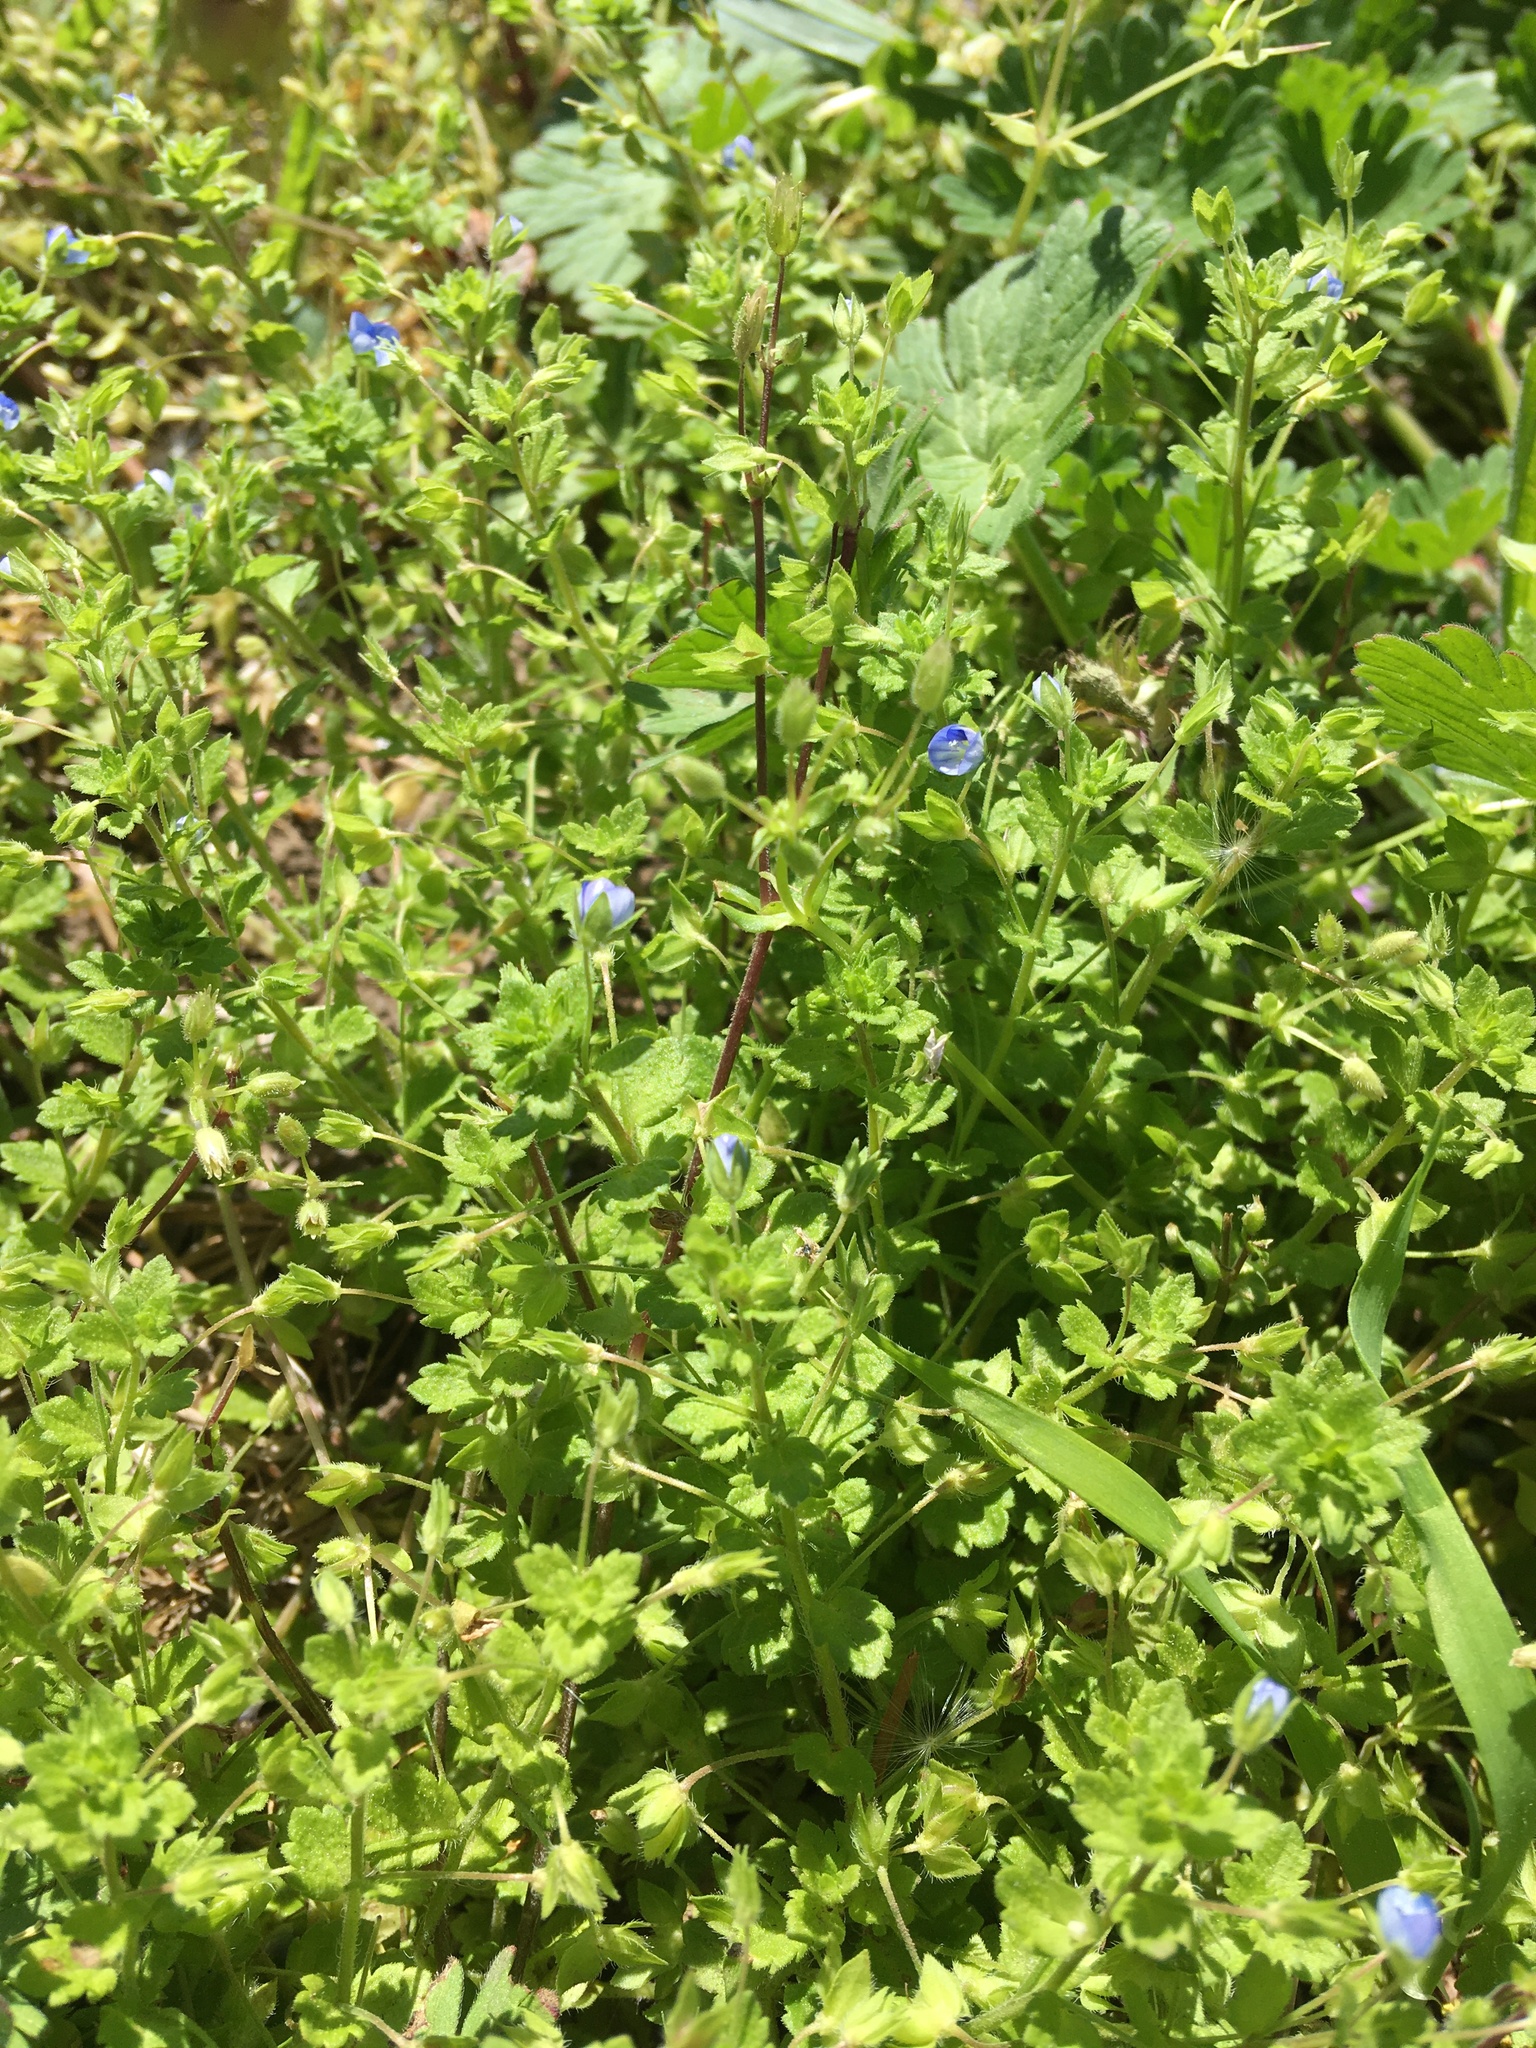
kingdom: Plantae
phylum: Tracheophyta
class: Magnoliopsida
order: Lamiales
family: Plantaginaceae
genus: Veronica
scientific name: Veronica persica
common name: Common field-speedwell
